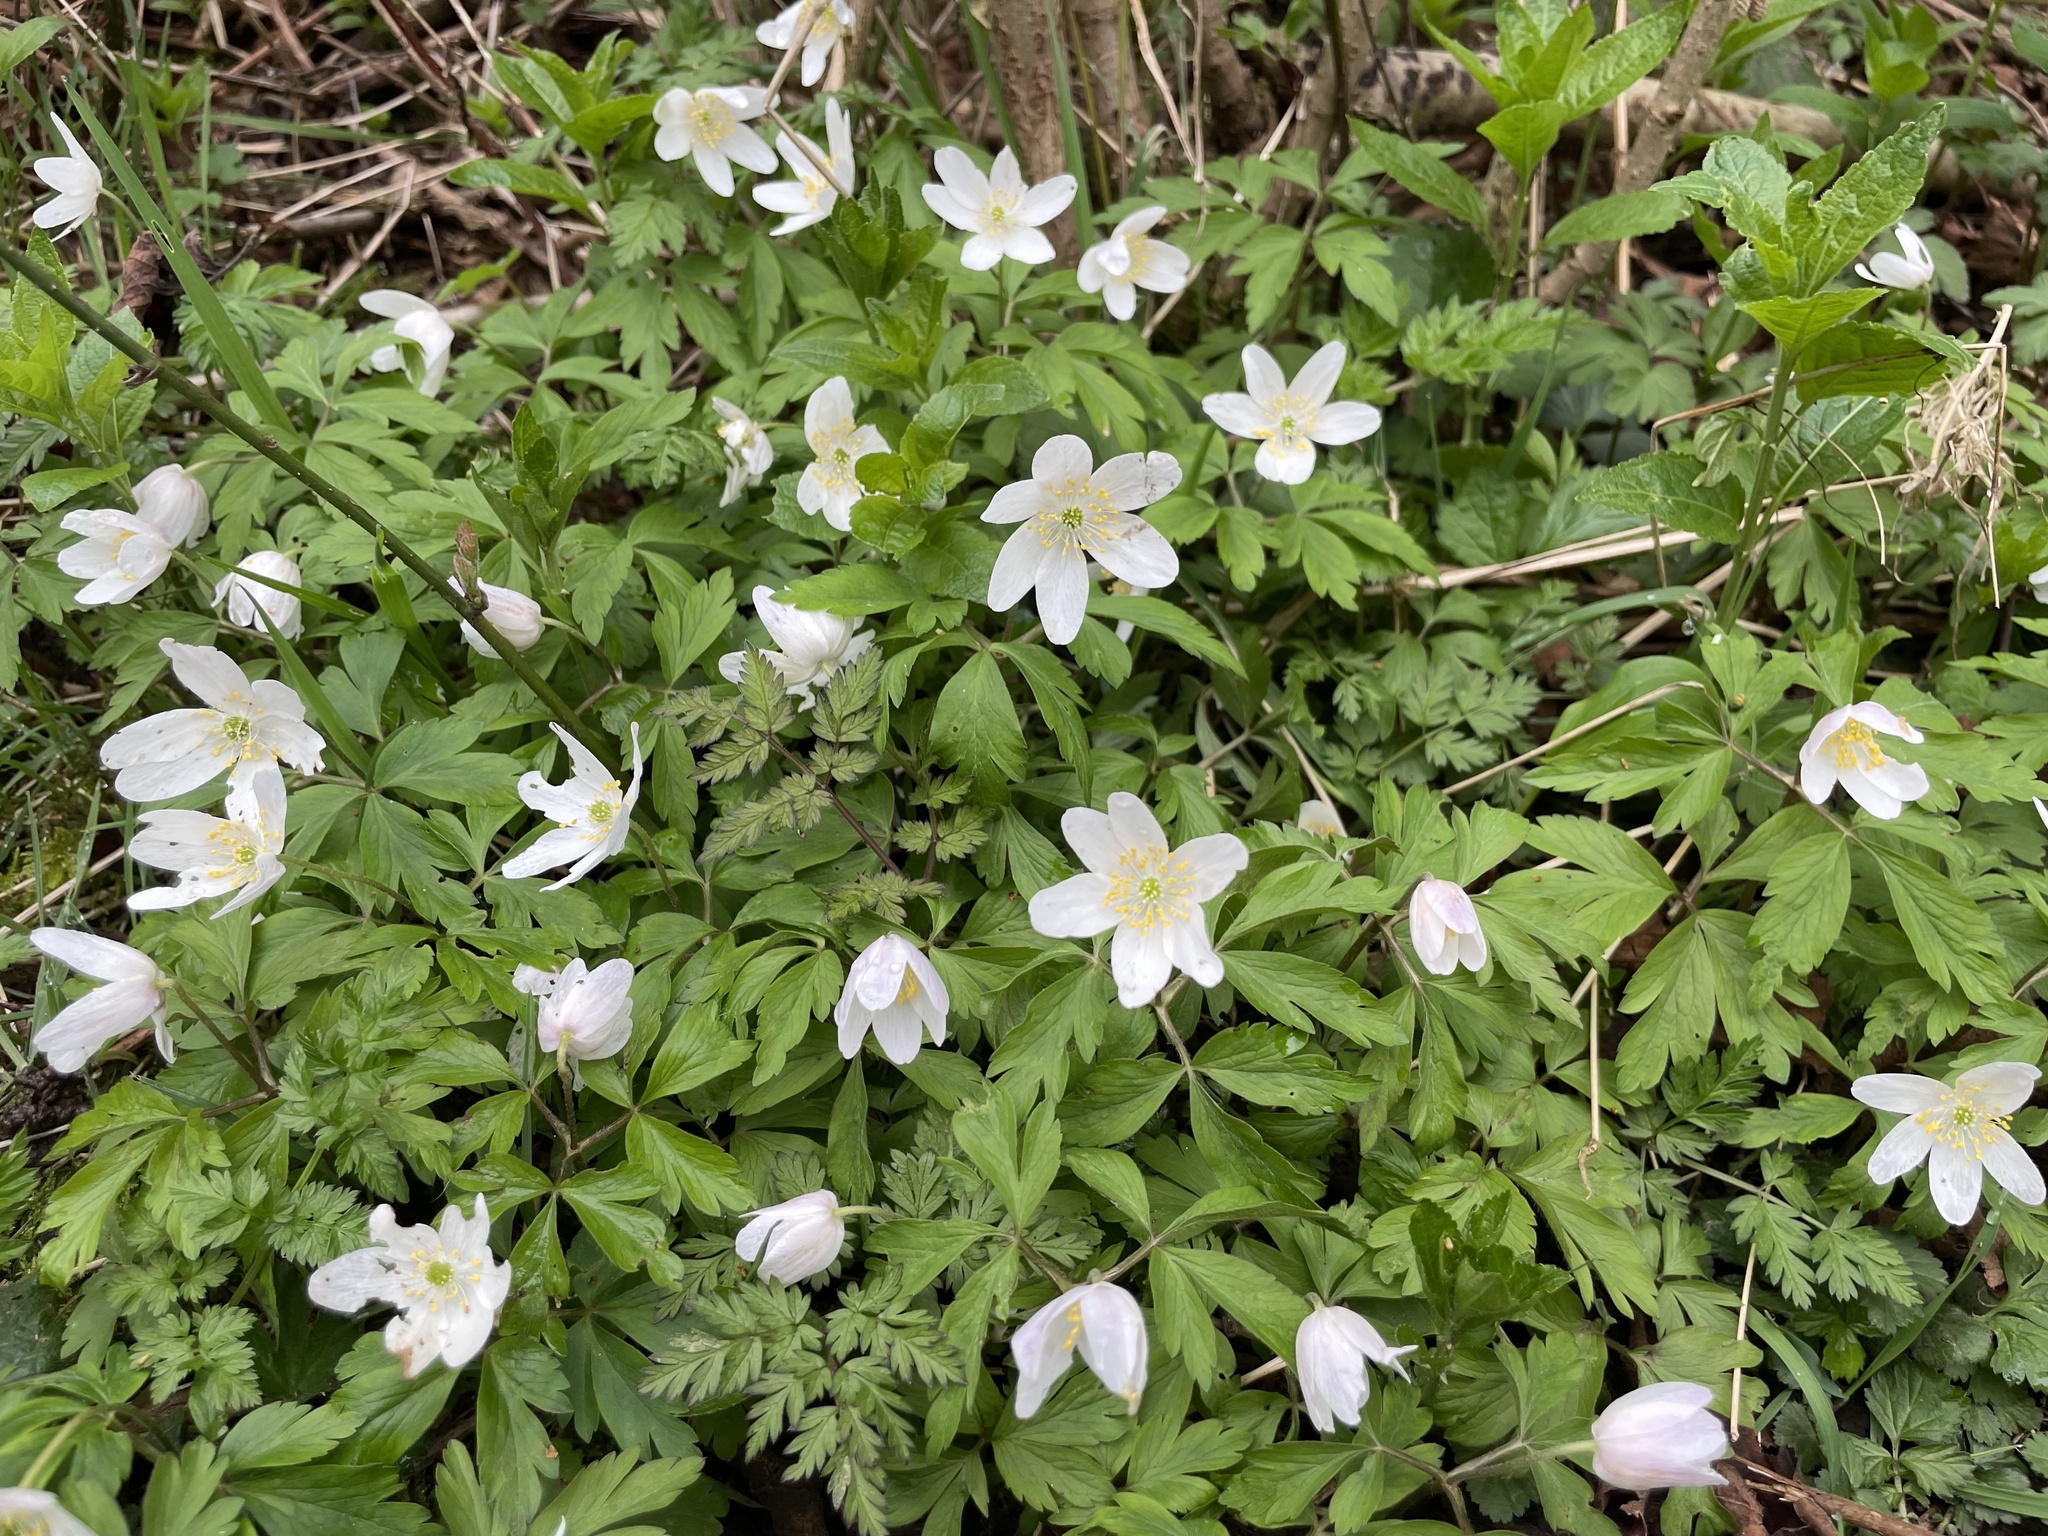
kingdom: Plantae
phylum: Tracheophyta
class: Magnoliopsida
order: Ranunculales
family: Ranunculaceae
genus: Anemone
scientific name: Anemone nemorosa
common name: Wood anemone
